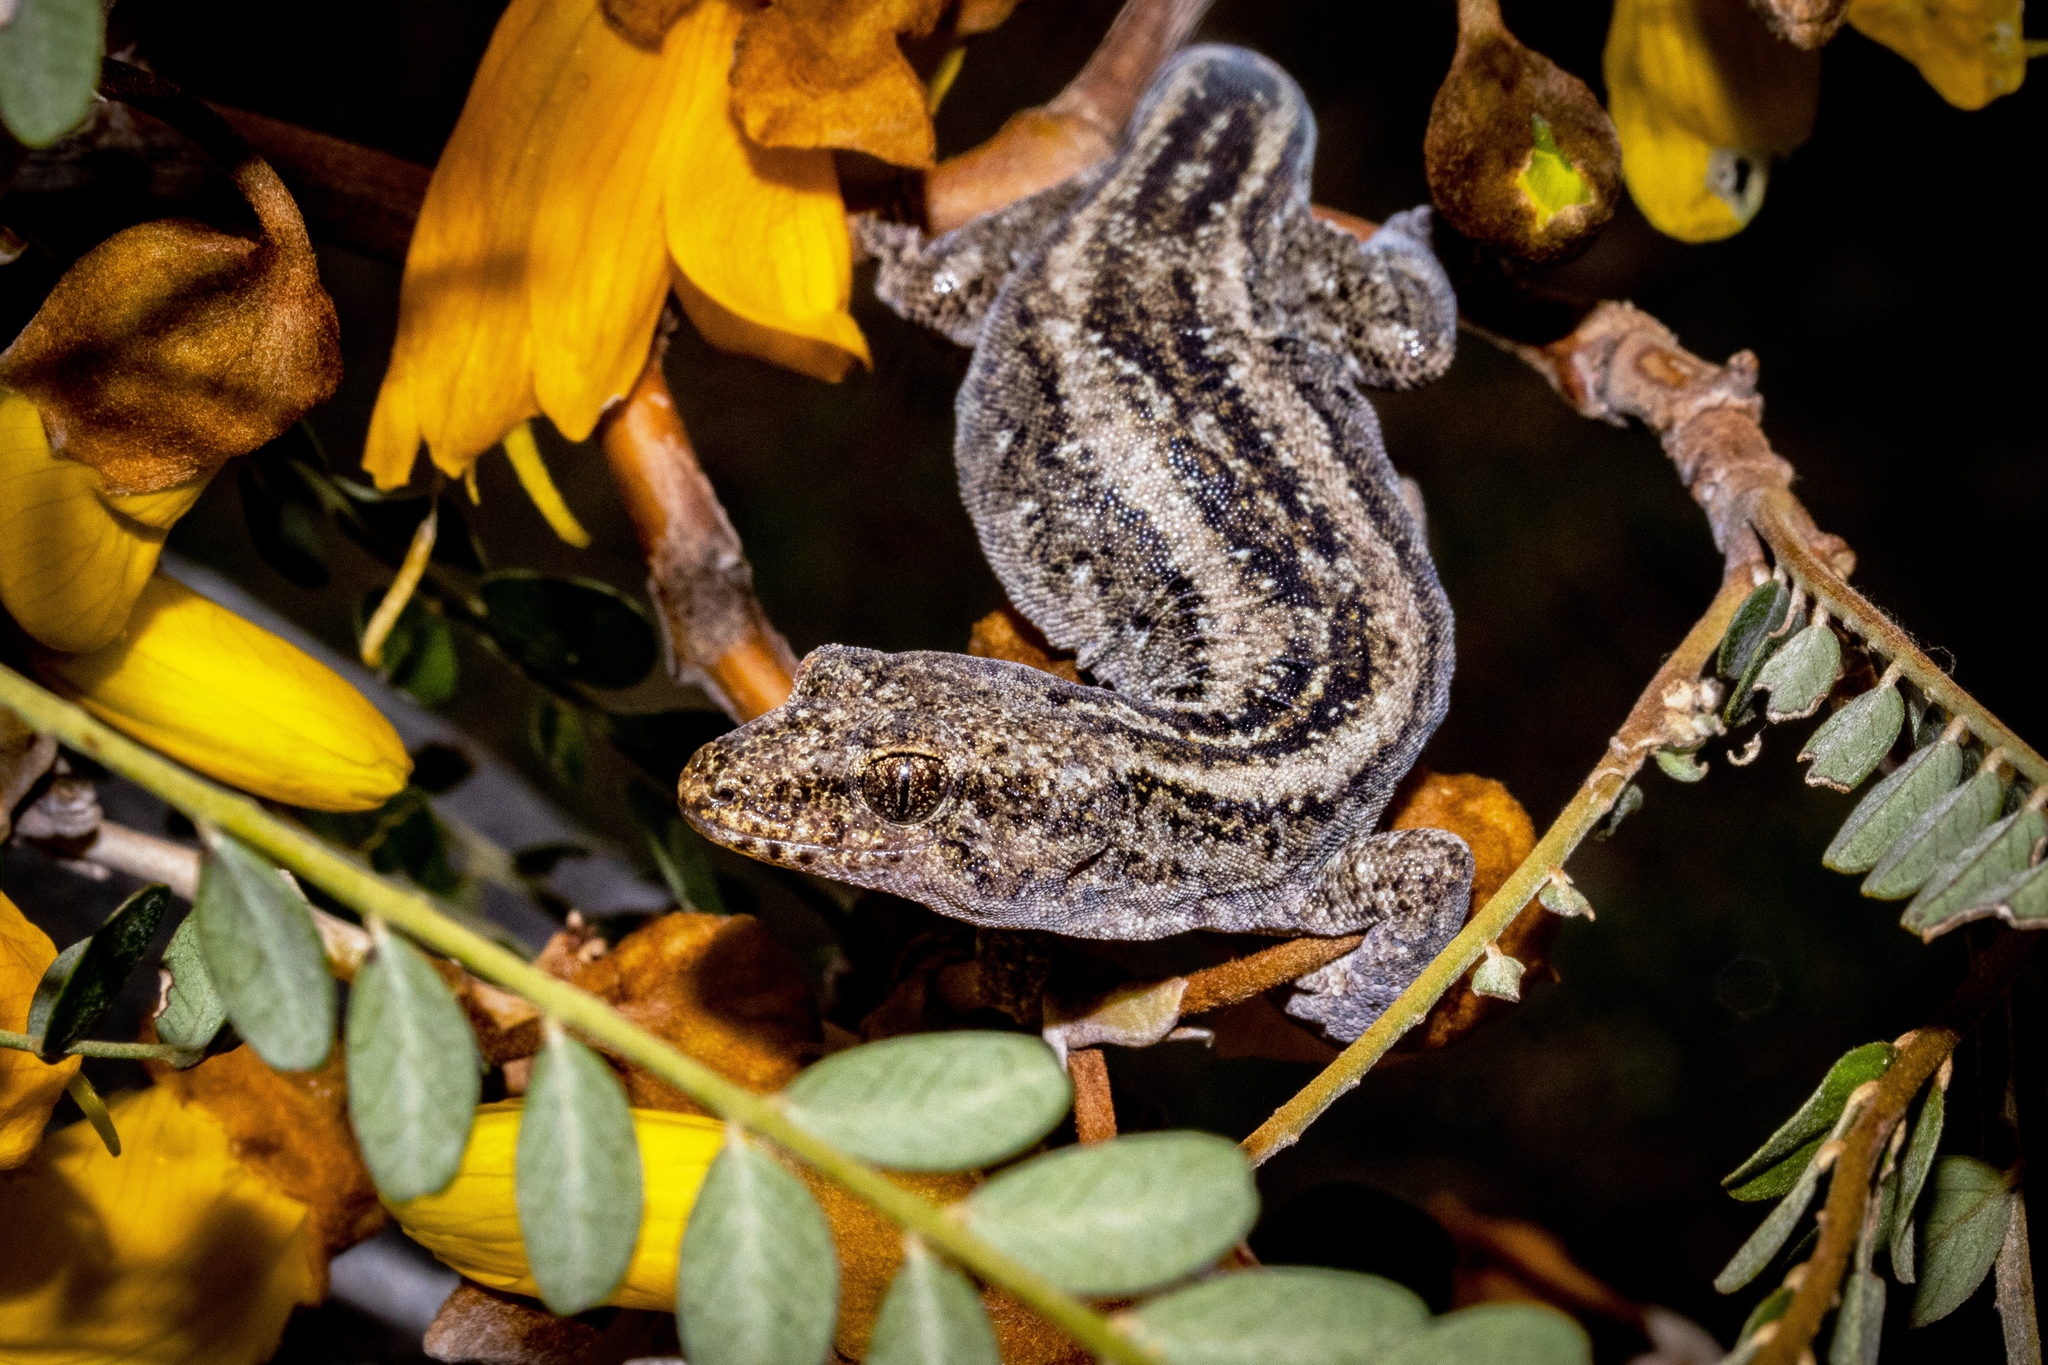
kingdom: Animalia
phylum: Chordata
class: Squamata
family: Diplodactylidae
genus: Woodworthia
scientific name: Woodworthia
